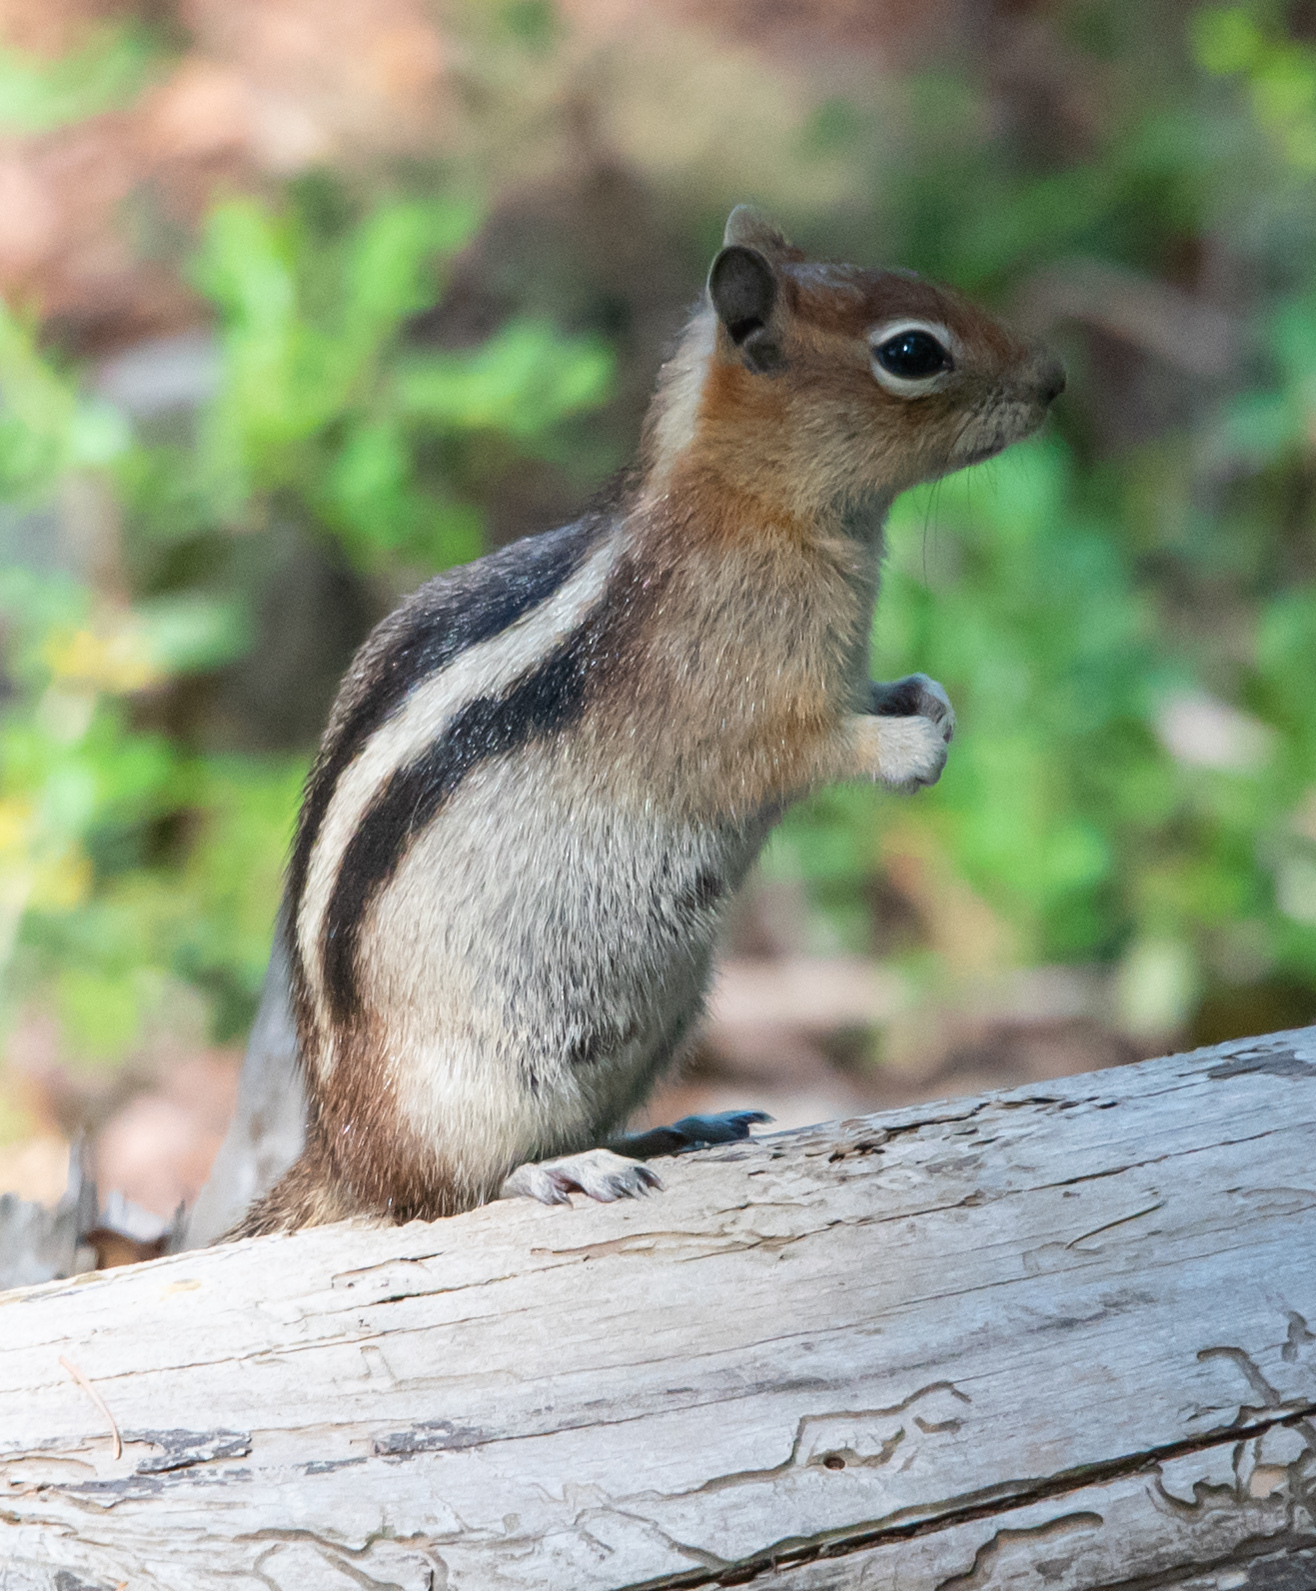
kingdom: Animalia
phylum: Chordata
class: Mammalia
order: Rodentia
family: Sciuridae
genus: Callospermophilus
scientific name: Callospermophilus lateralis
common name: Golden-mantled ground squirrel
